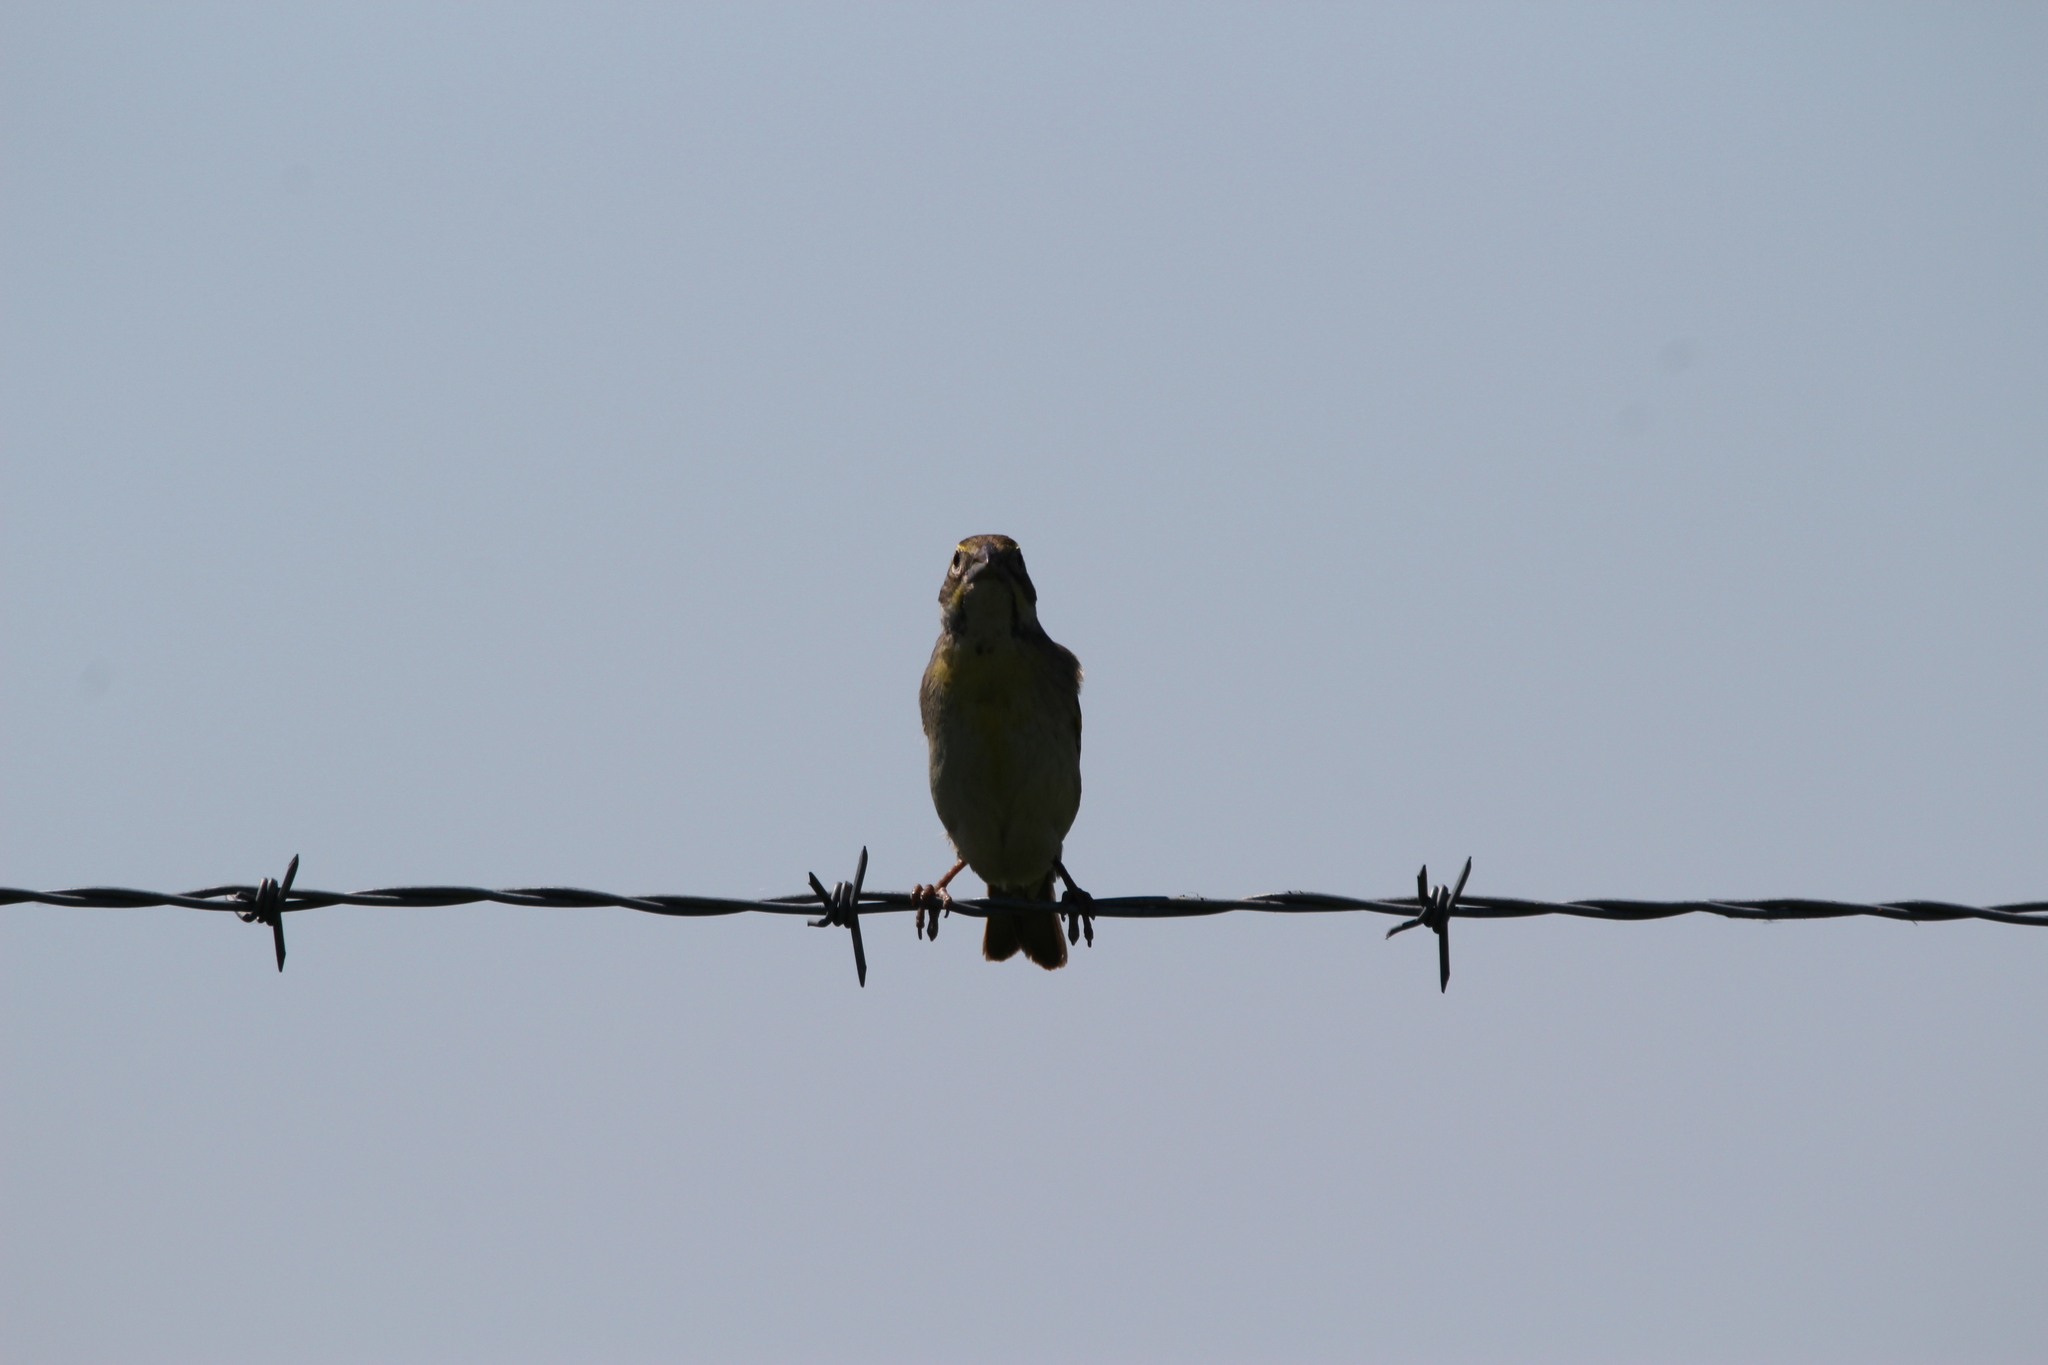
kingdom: Animalia
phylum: Chordata
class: Aves
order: Passeriformes
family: Cardinalidae
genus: Spiza
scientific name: Spiza americana
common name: Dickcissel
